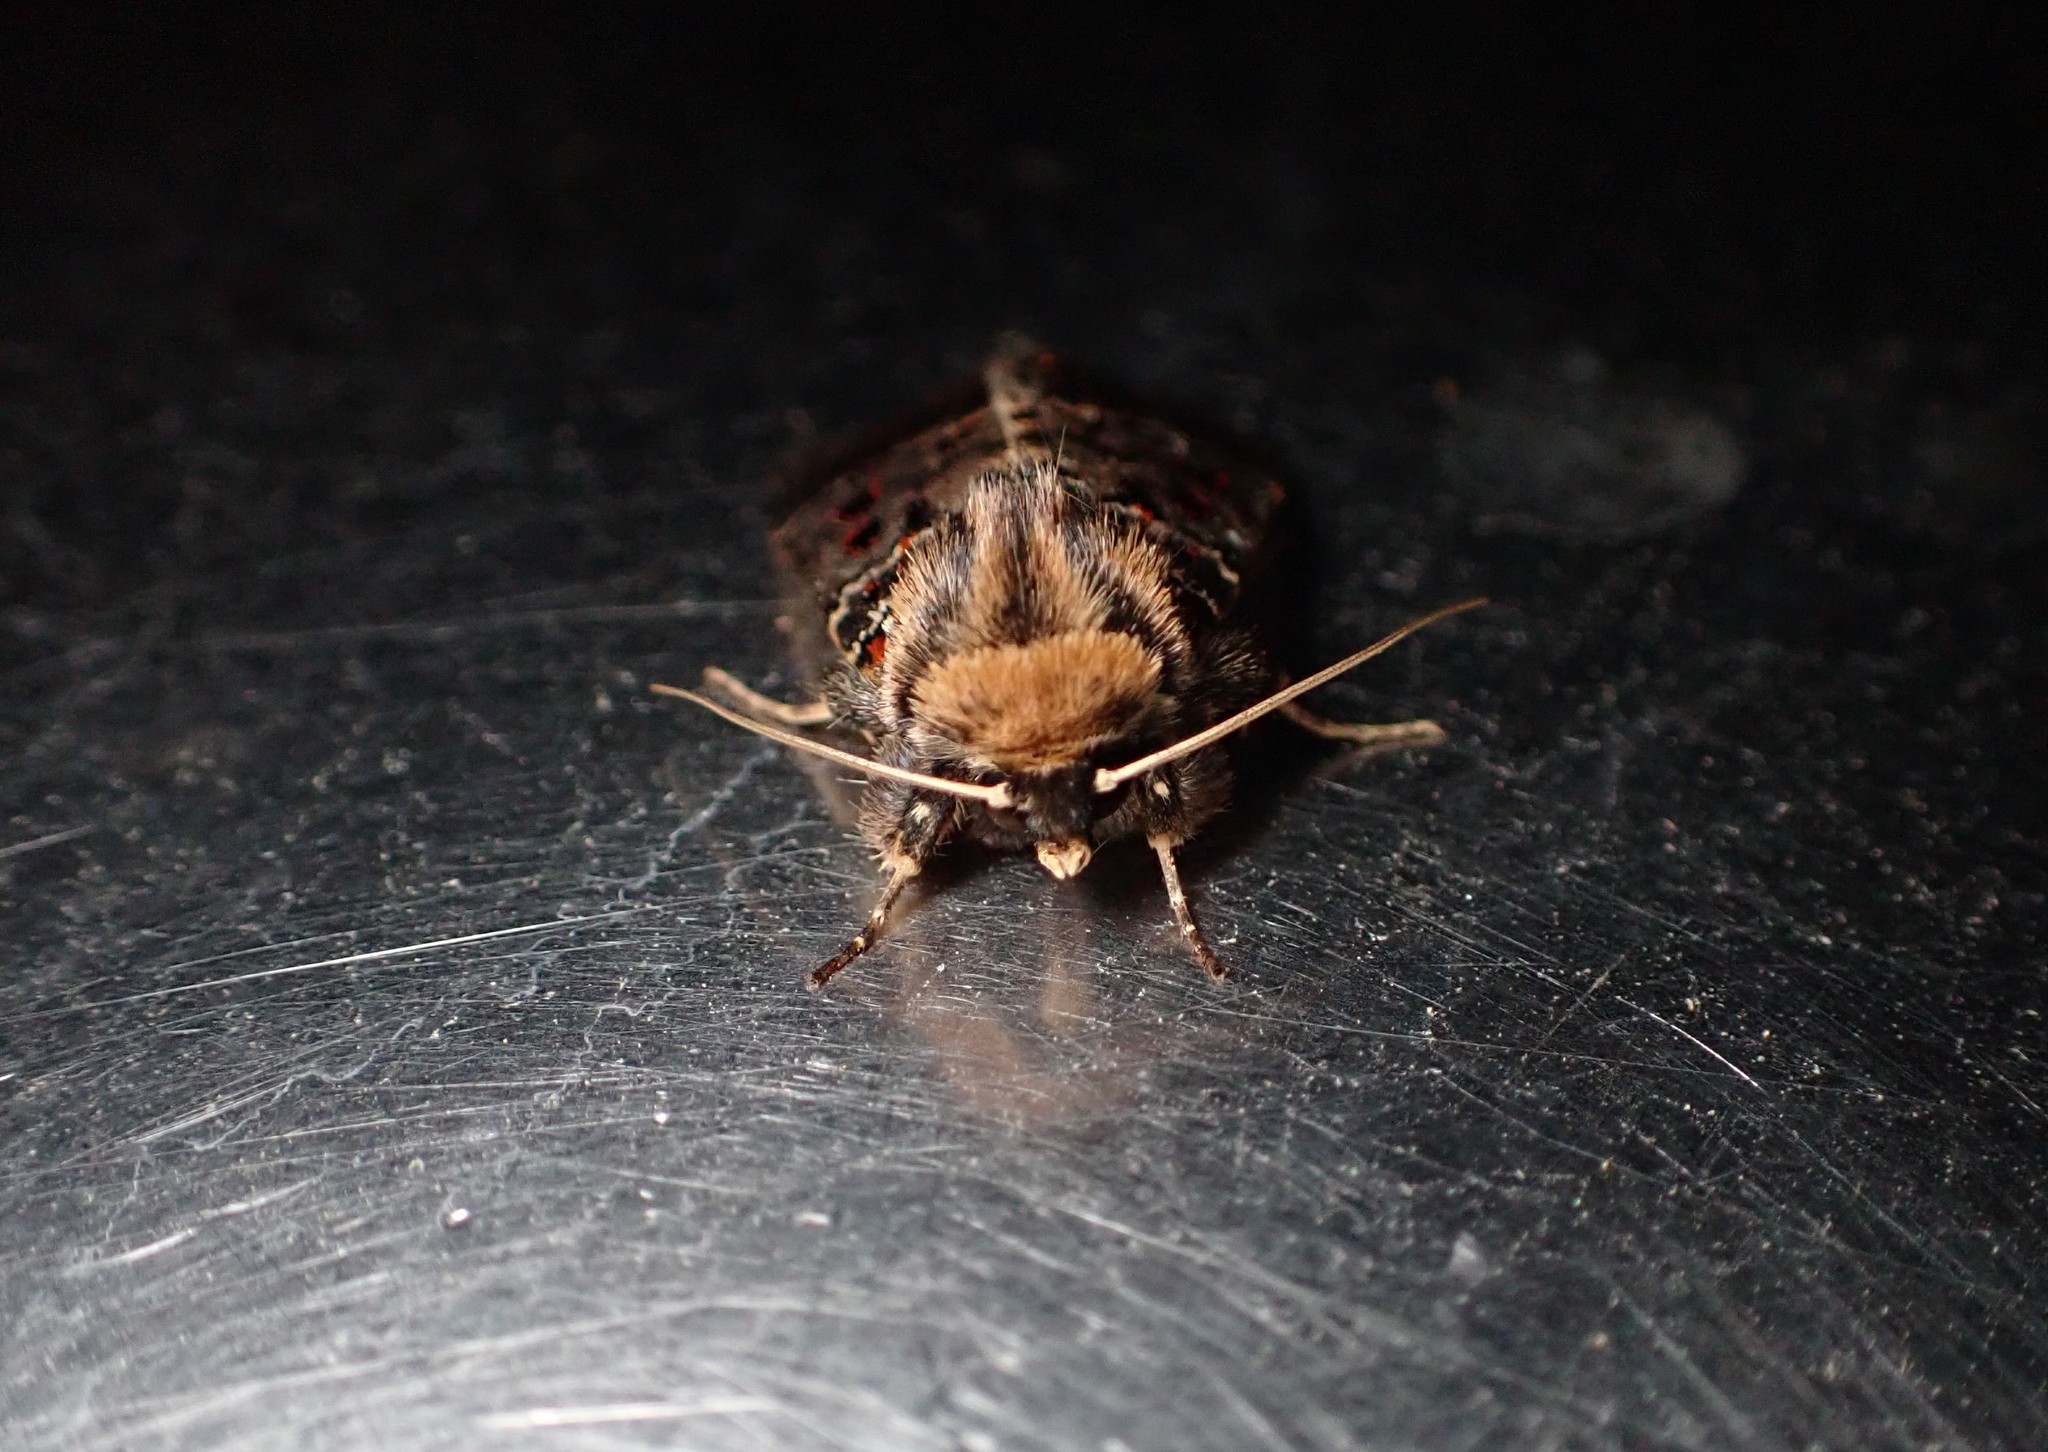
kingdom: Animalia
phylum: Arthropoda
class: Insecta
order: Lepidoptera
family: Noctuidae
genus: Proteuxoa
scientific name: Proteuxoa sanguinipuncta
